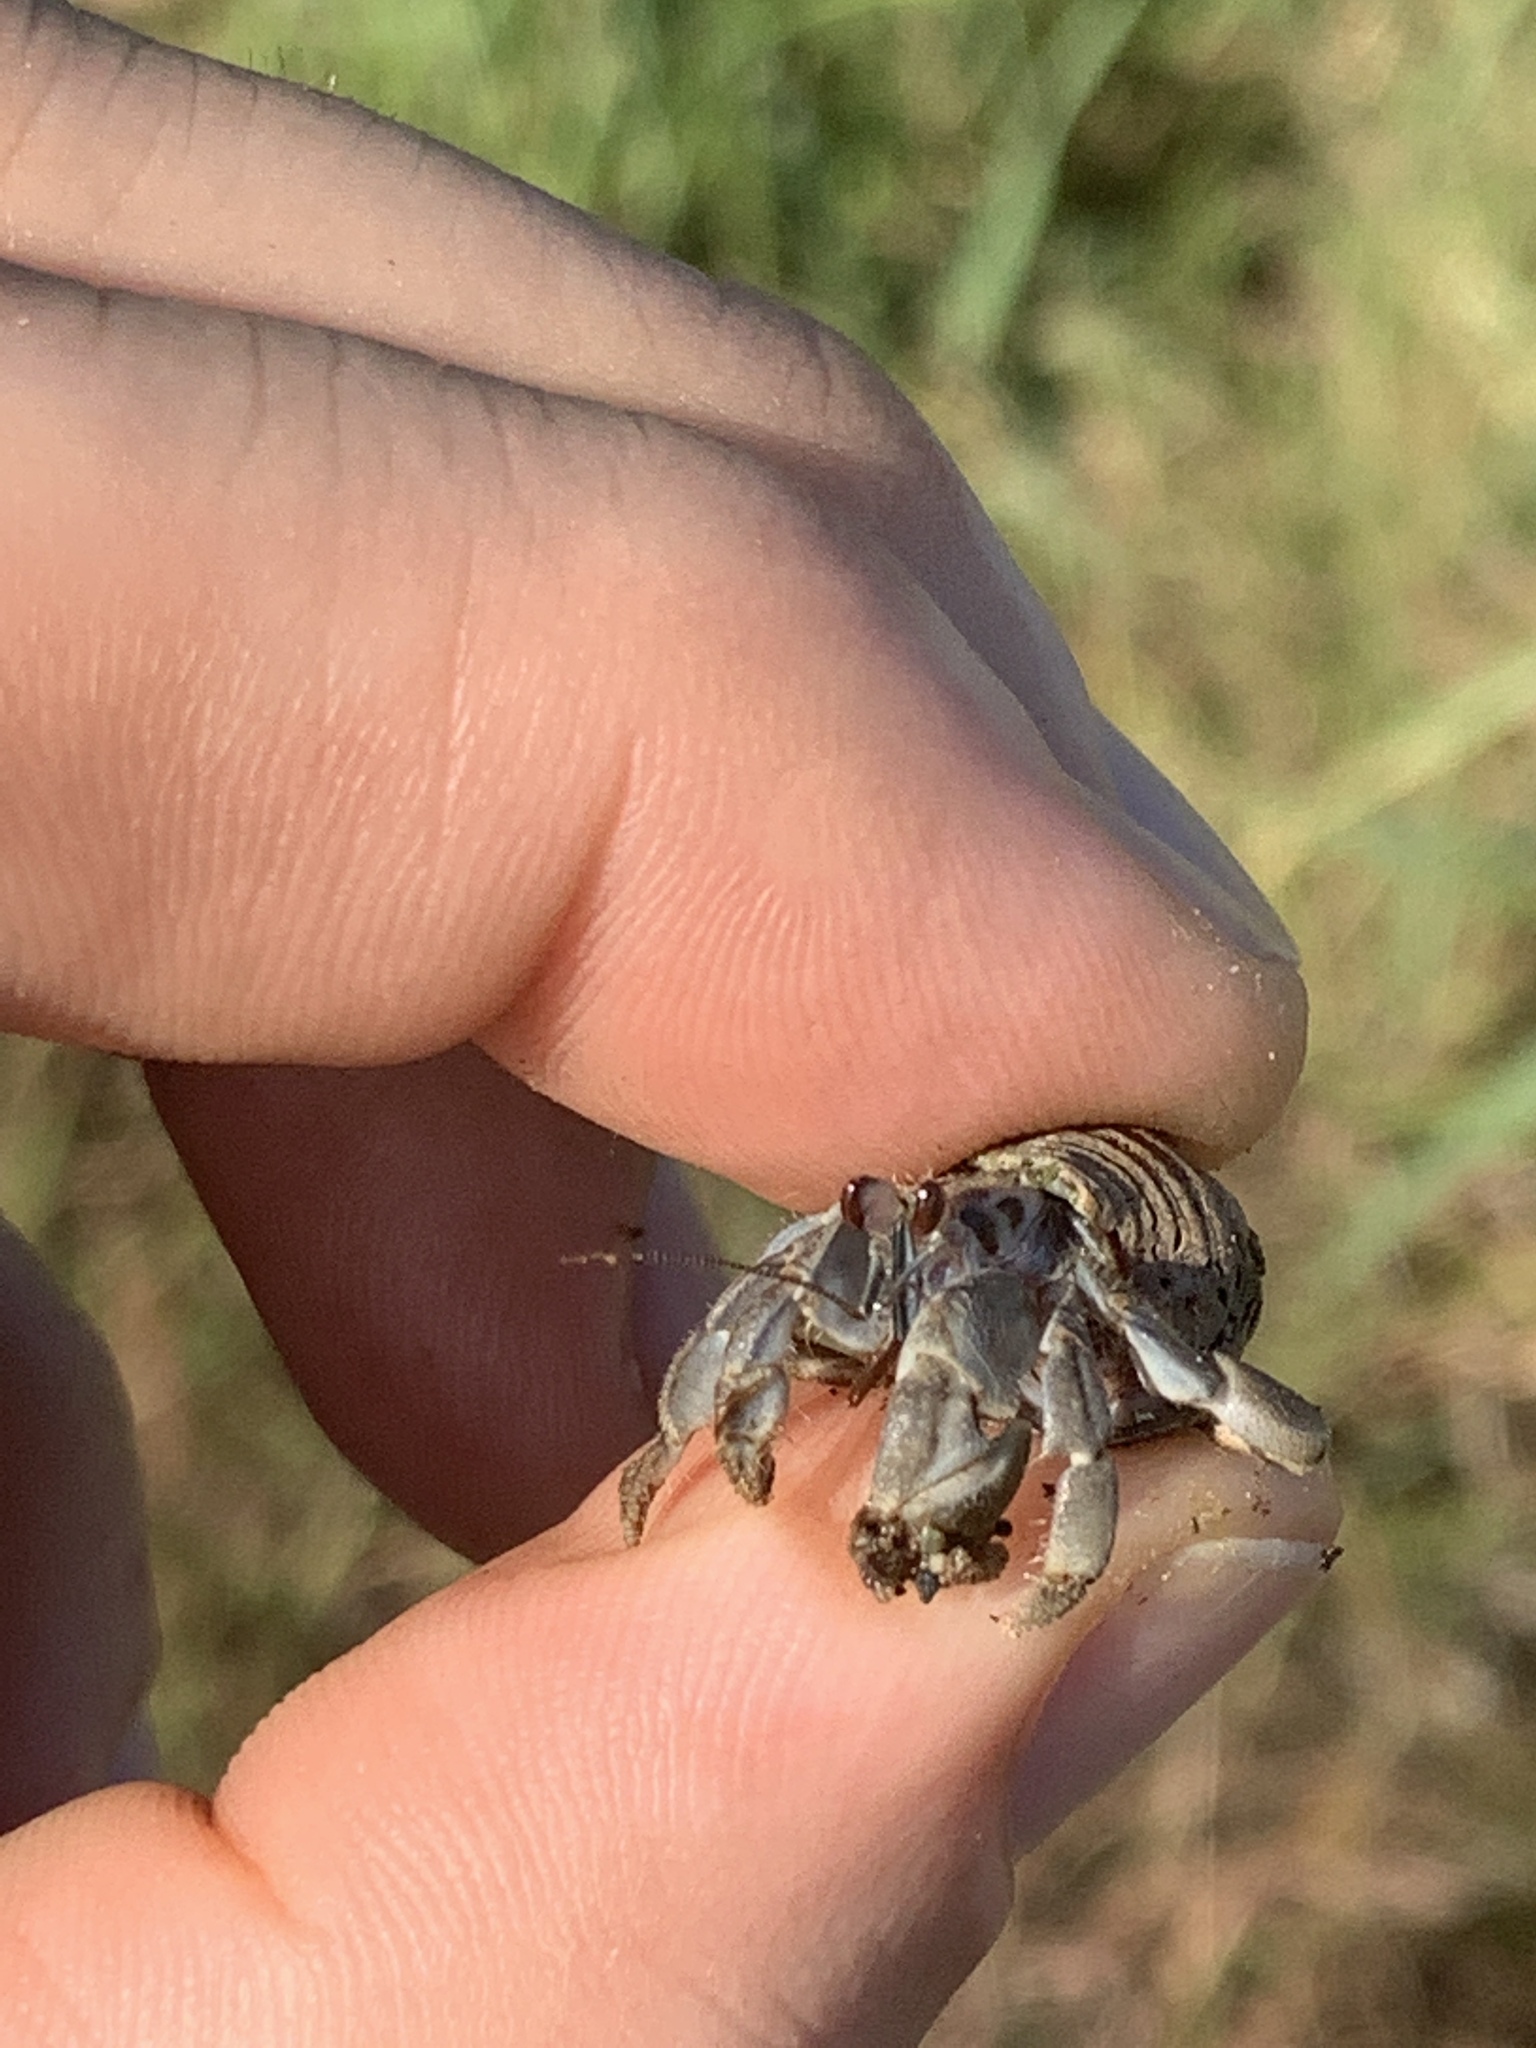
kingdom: Animalia
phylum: Arthropoda
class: Malacostraca
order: Decapoda
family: Coenobitidae
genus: Coenobita
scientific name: Coenobita compressus
